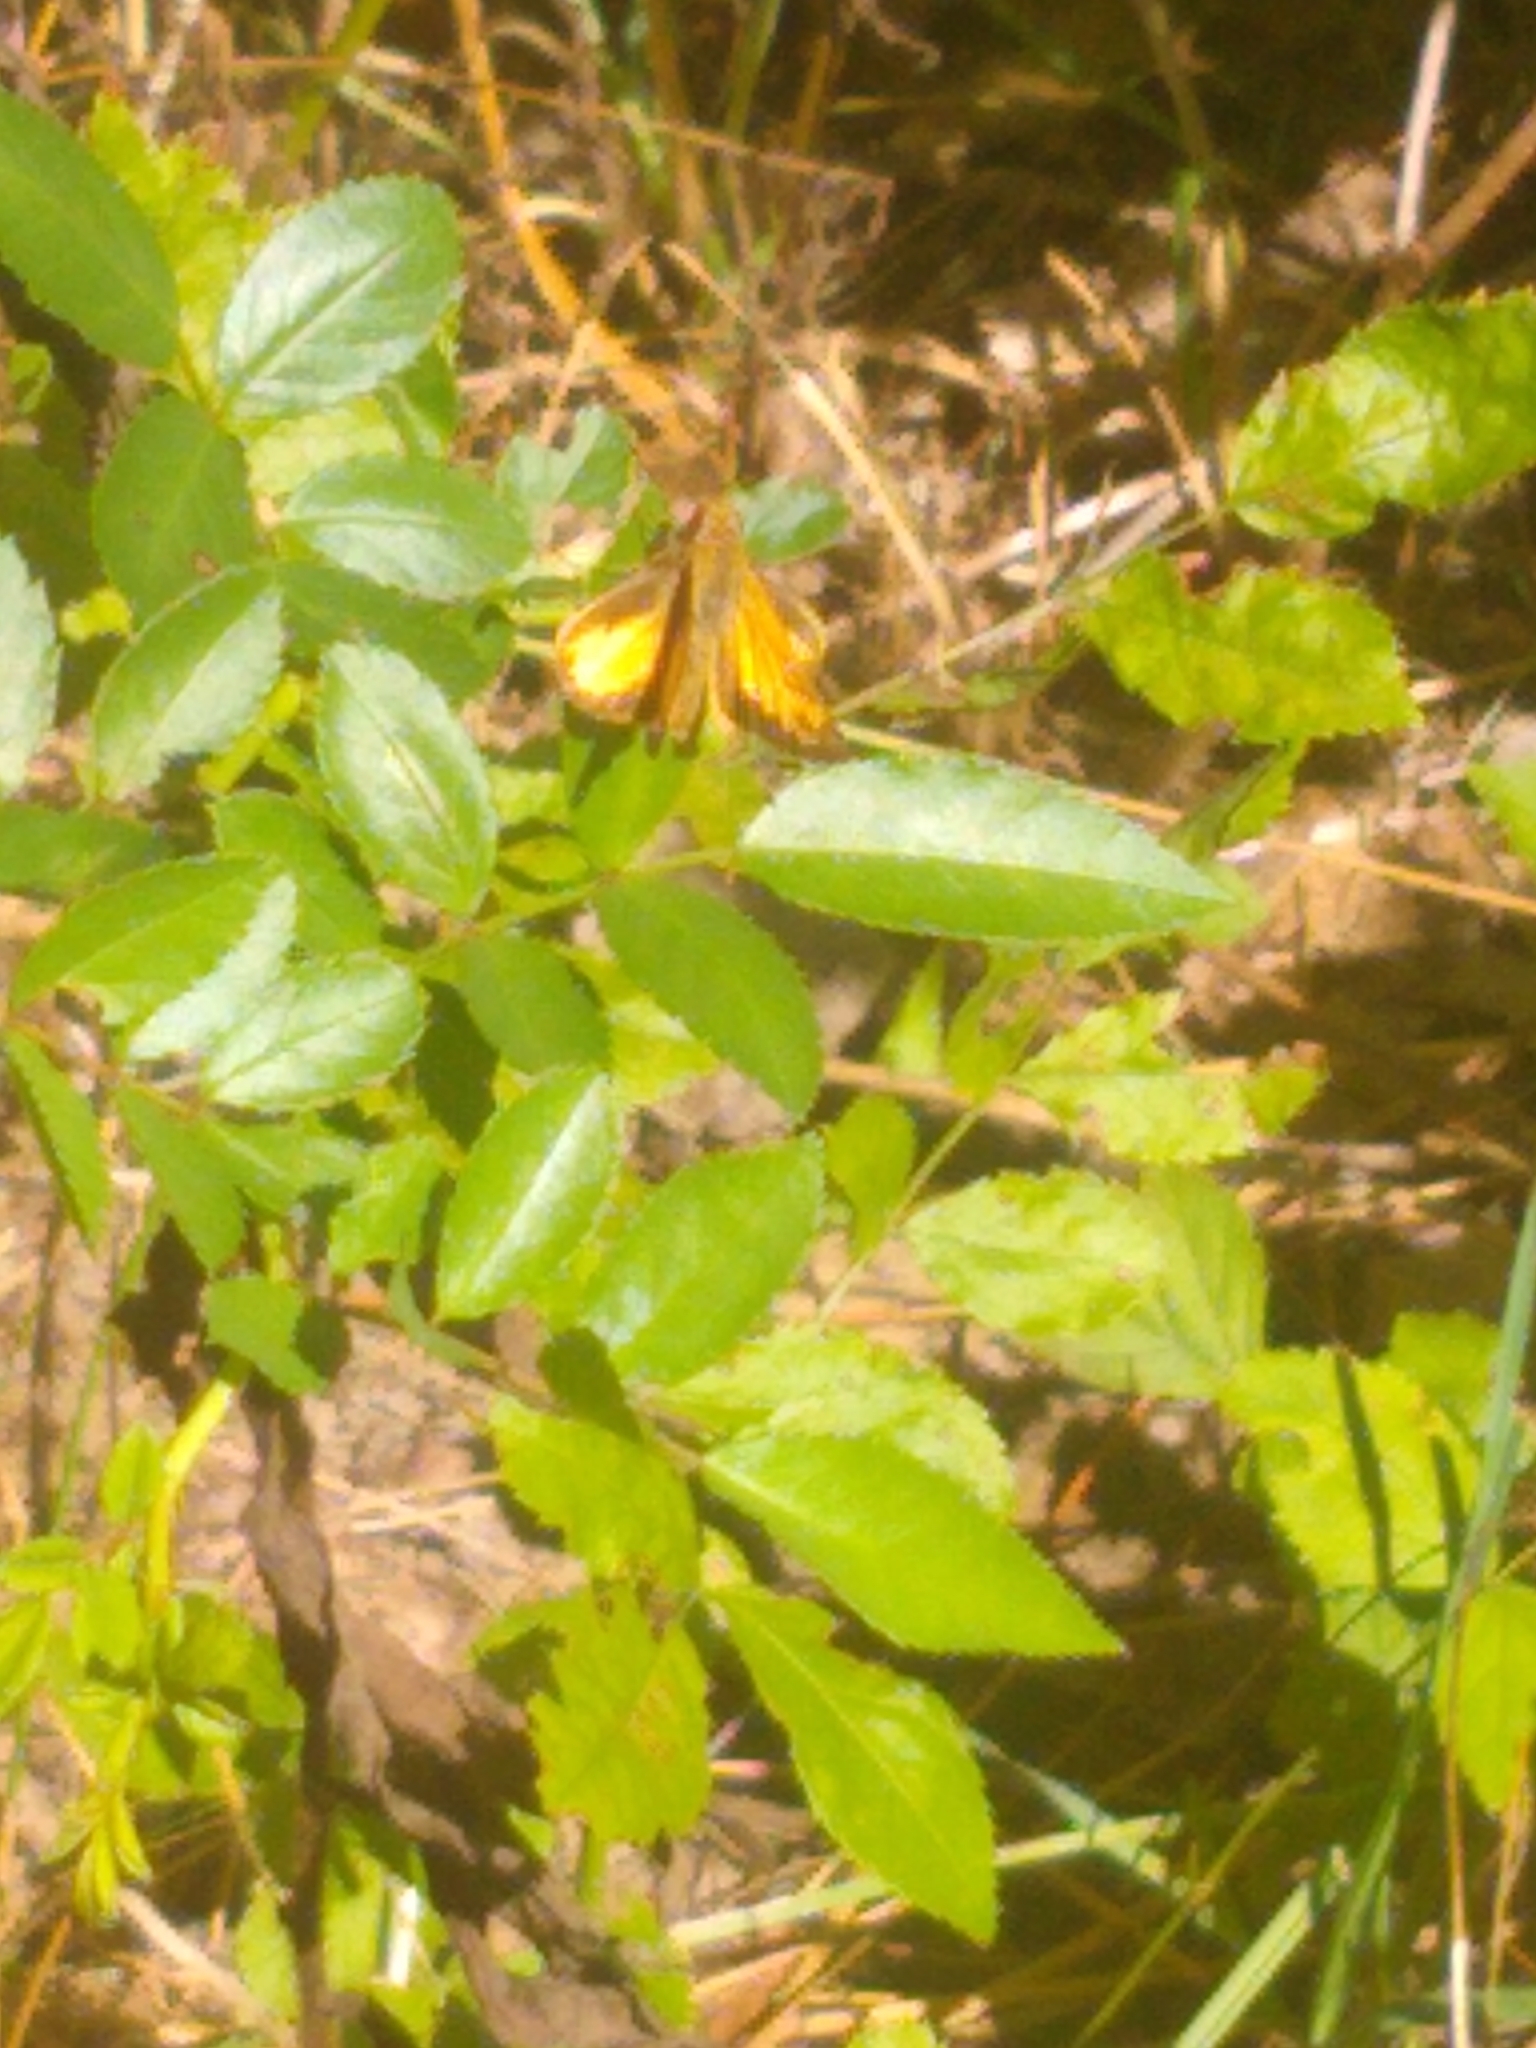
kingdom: Animalia
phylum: Arthropoda
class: Insecta
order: Lepidoptera
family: Hesperiidae
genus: Lon
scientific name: Lon zabulon
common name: Zabulon skipper
